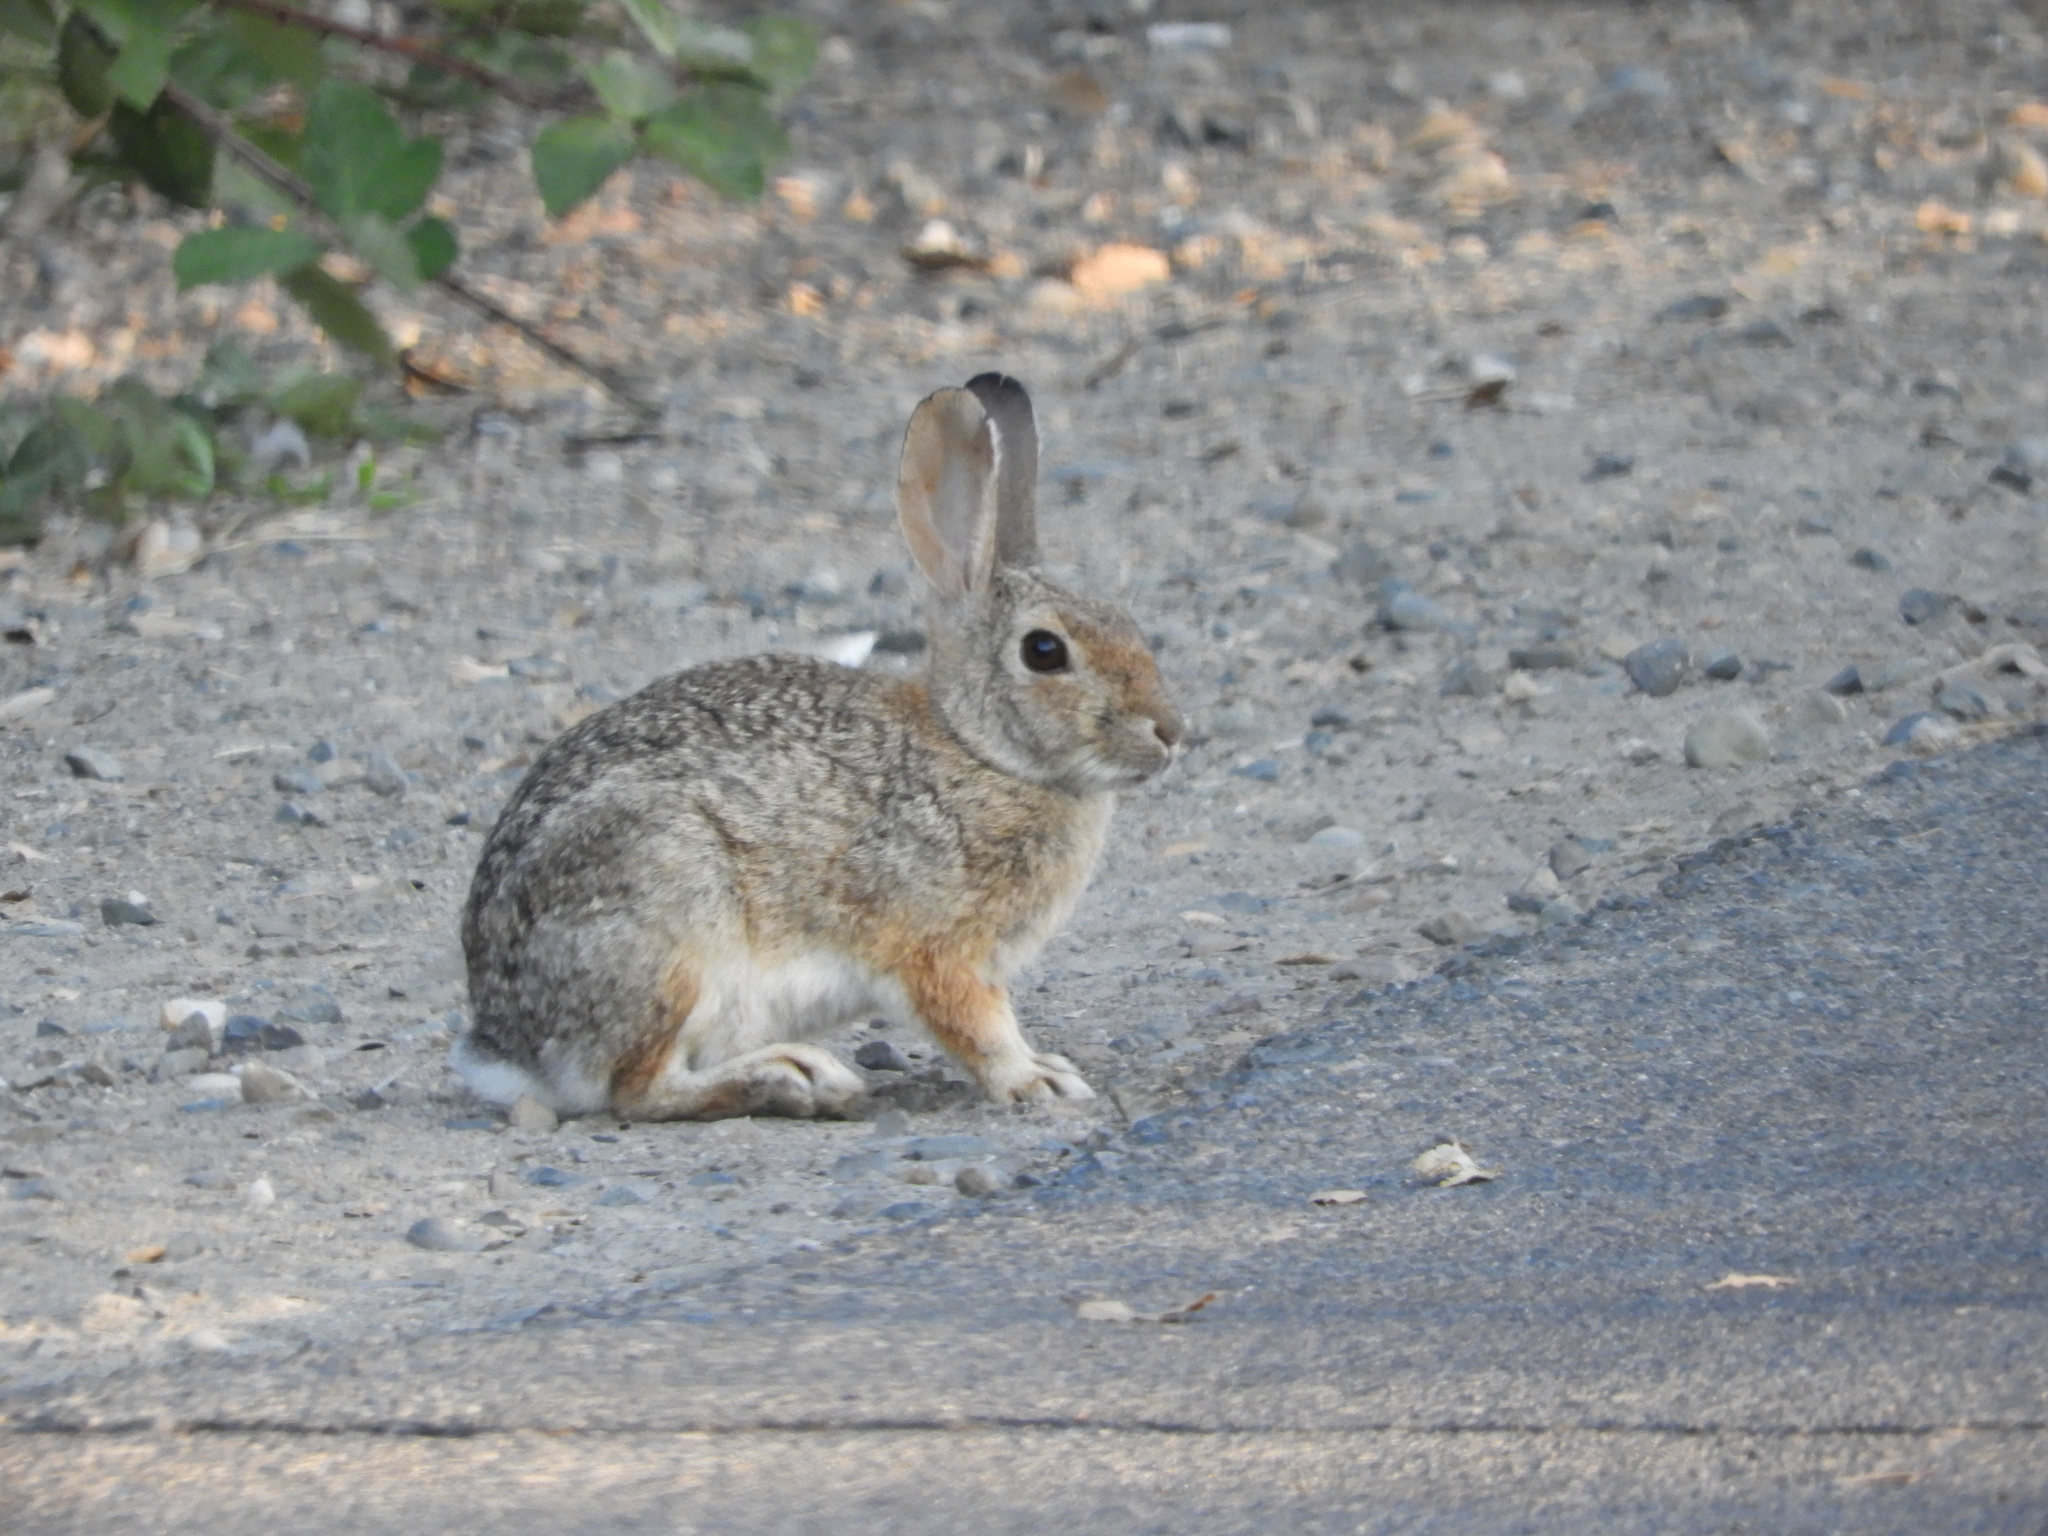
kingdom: Animalia
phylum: Chordata
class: Mammalia
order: Lagomorpha
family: Leporidae
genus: Sylvilagus
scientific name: Sylvilagus audubonii
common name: Desert cottontail
